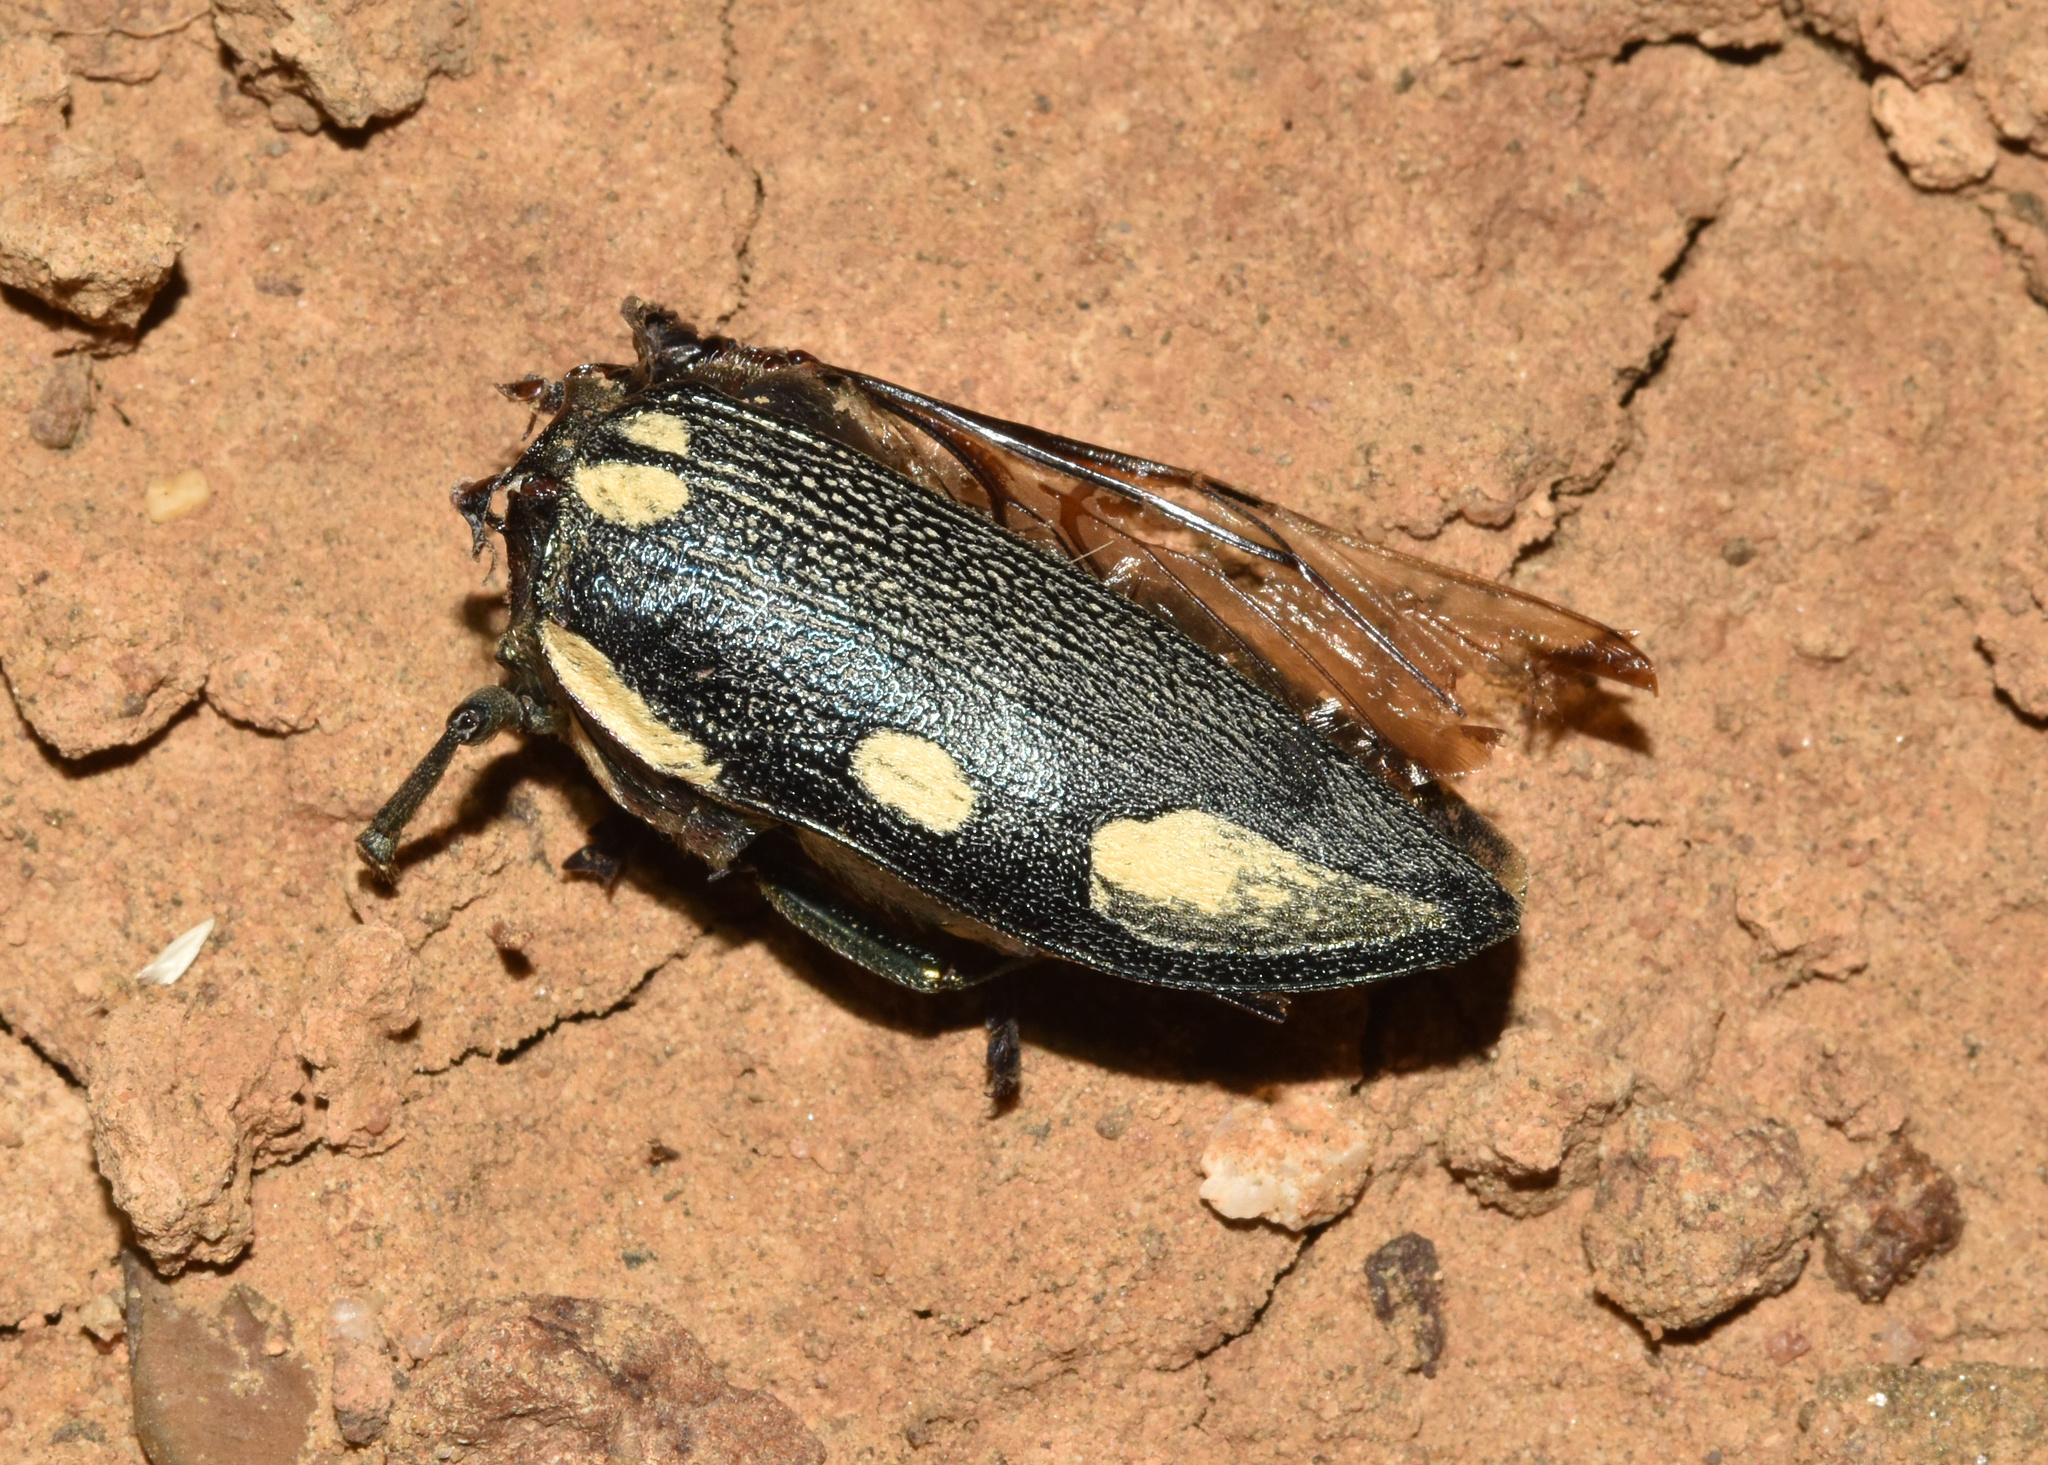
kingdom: Animalia
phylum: Arthropoda
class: Insecta
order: Coleoptera
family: Buprestidae
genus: Sternocera
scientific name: Sternocera orissa
